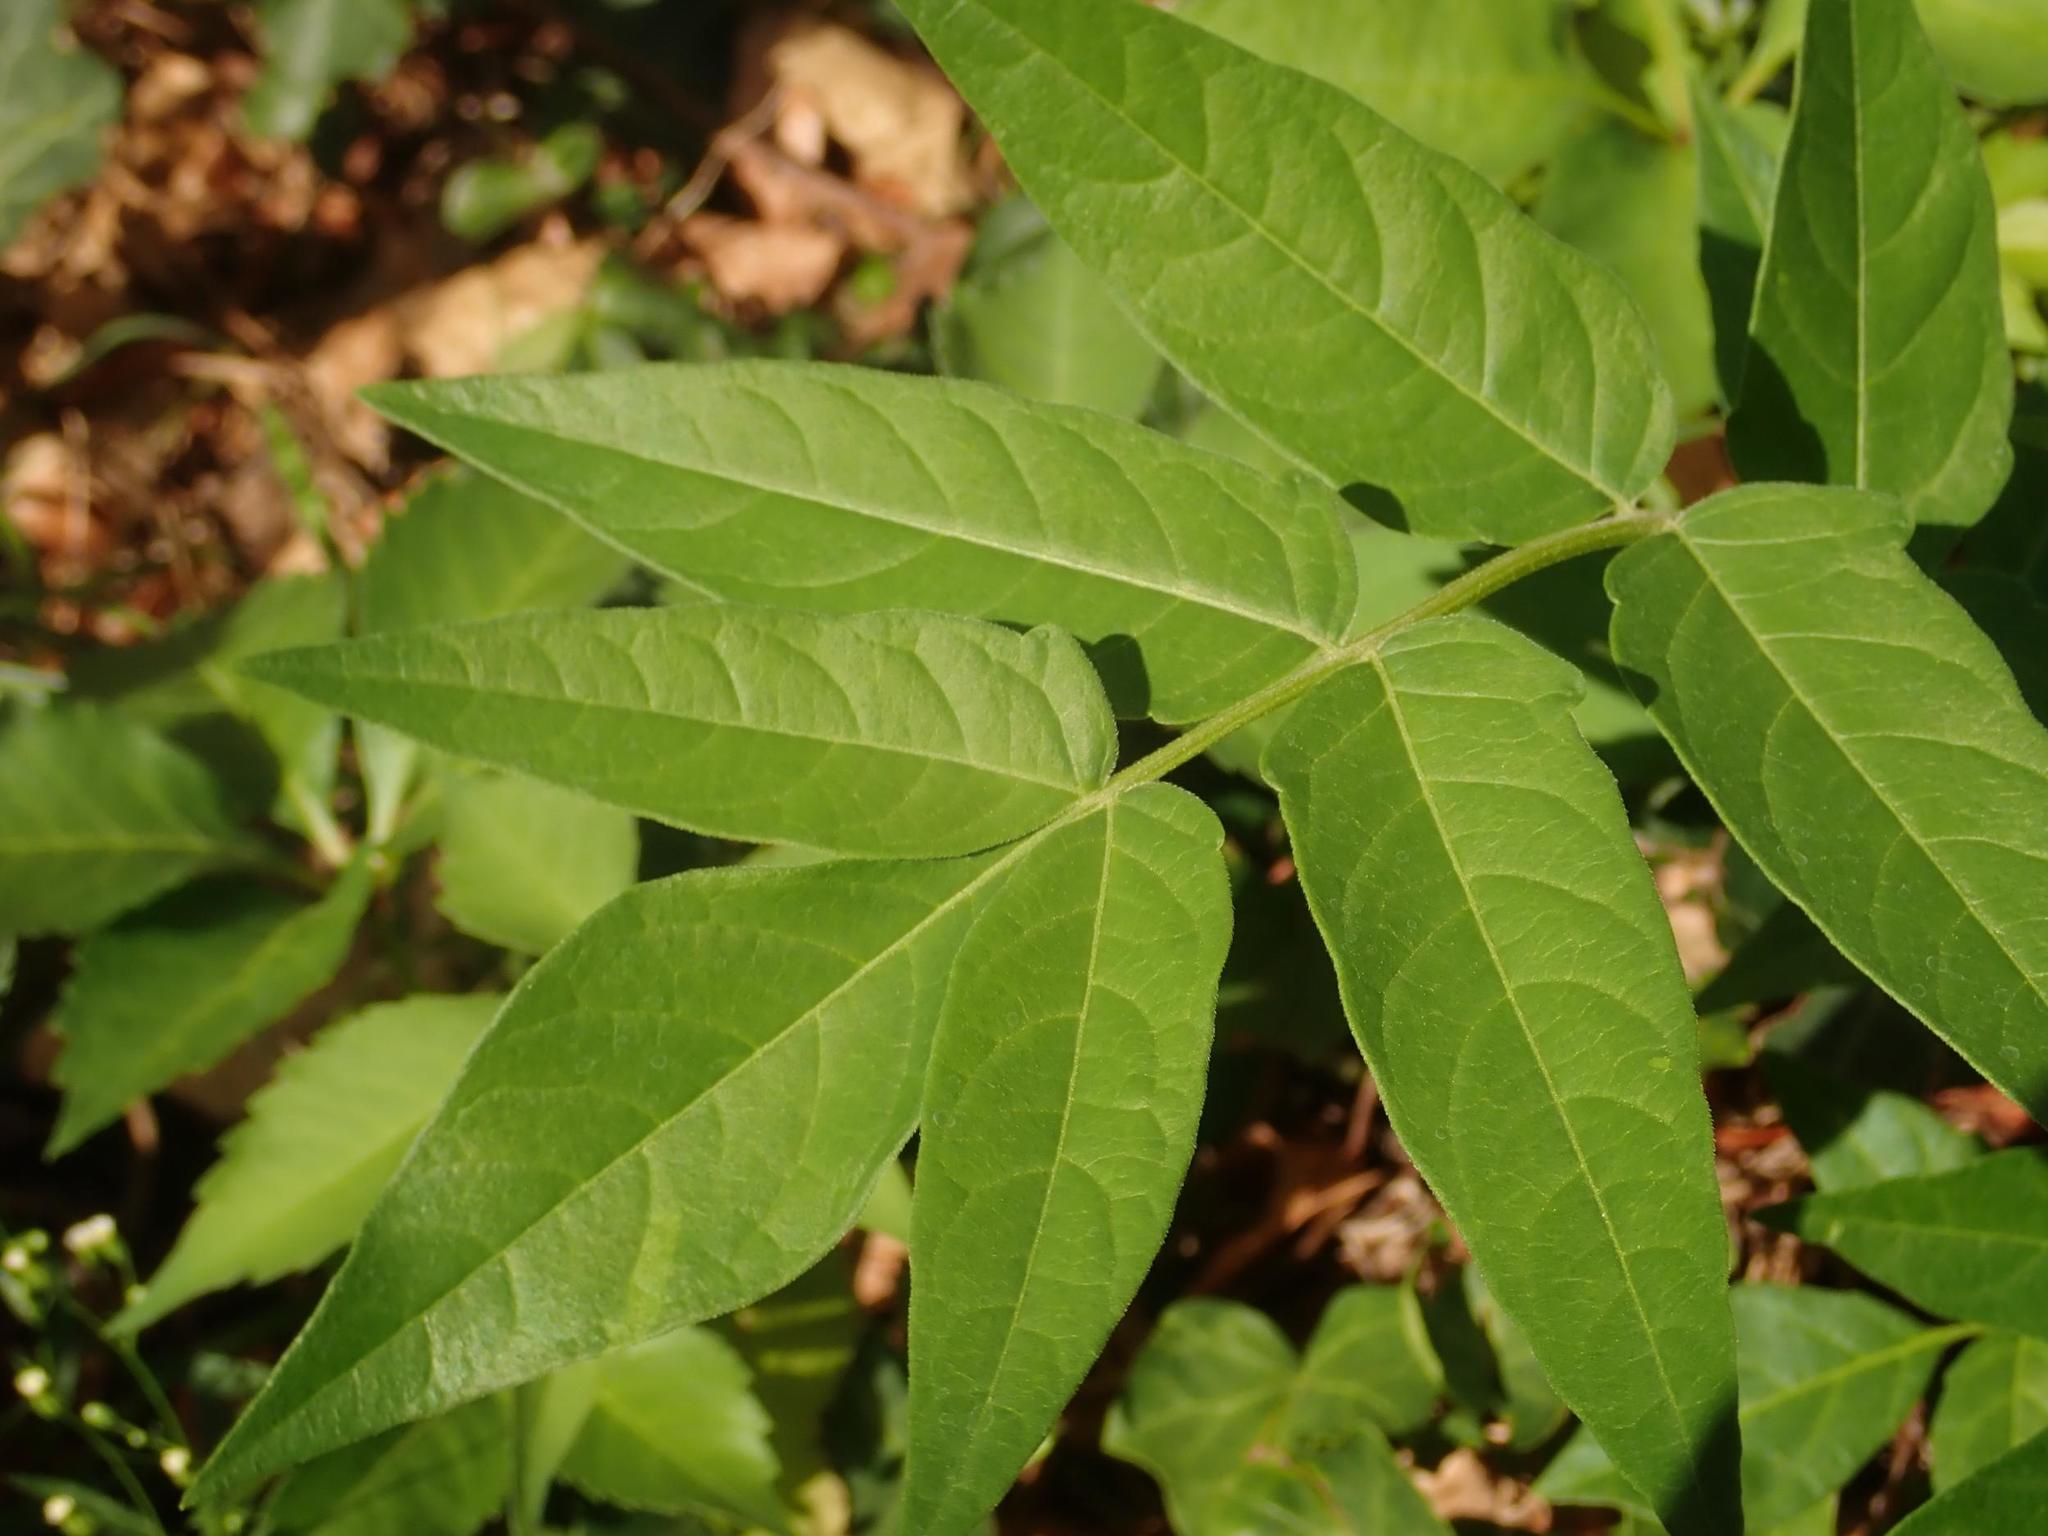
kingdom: Plantae
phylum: Tracheophyta
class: Magnoliopsida
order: Sapindales
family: Simaroubaceae
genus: Ailanthus
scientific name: Ailanthus altissima
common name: Tree-of-heaven
